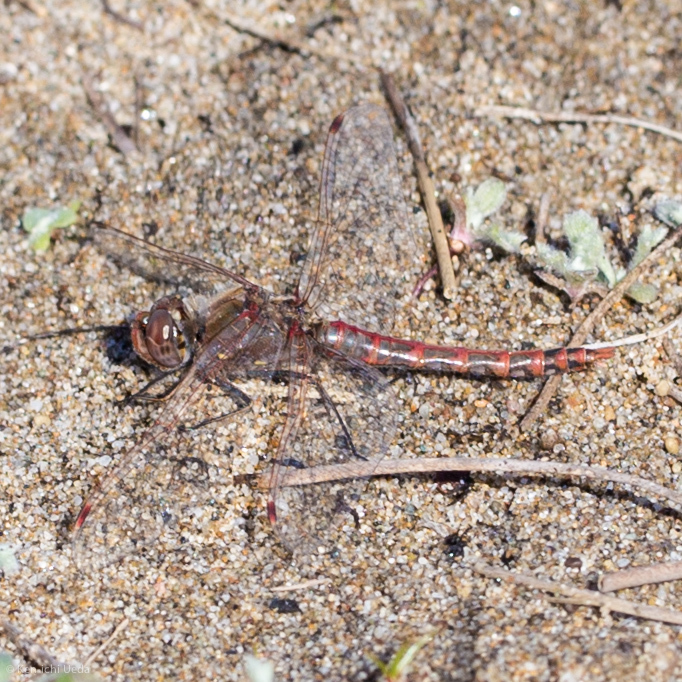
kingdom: Animalia
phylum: Arthropoda
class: Insecta
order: Odonata
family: Libellulidae
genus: Sympetrum
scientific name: Sympetrum corruptum
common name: Variegated meadowhawk
